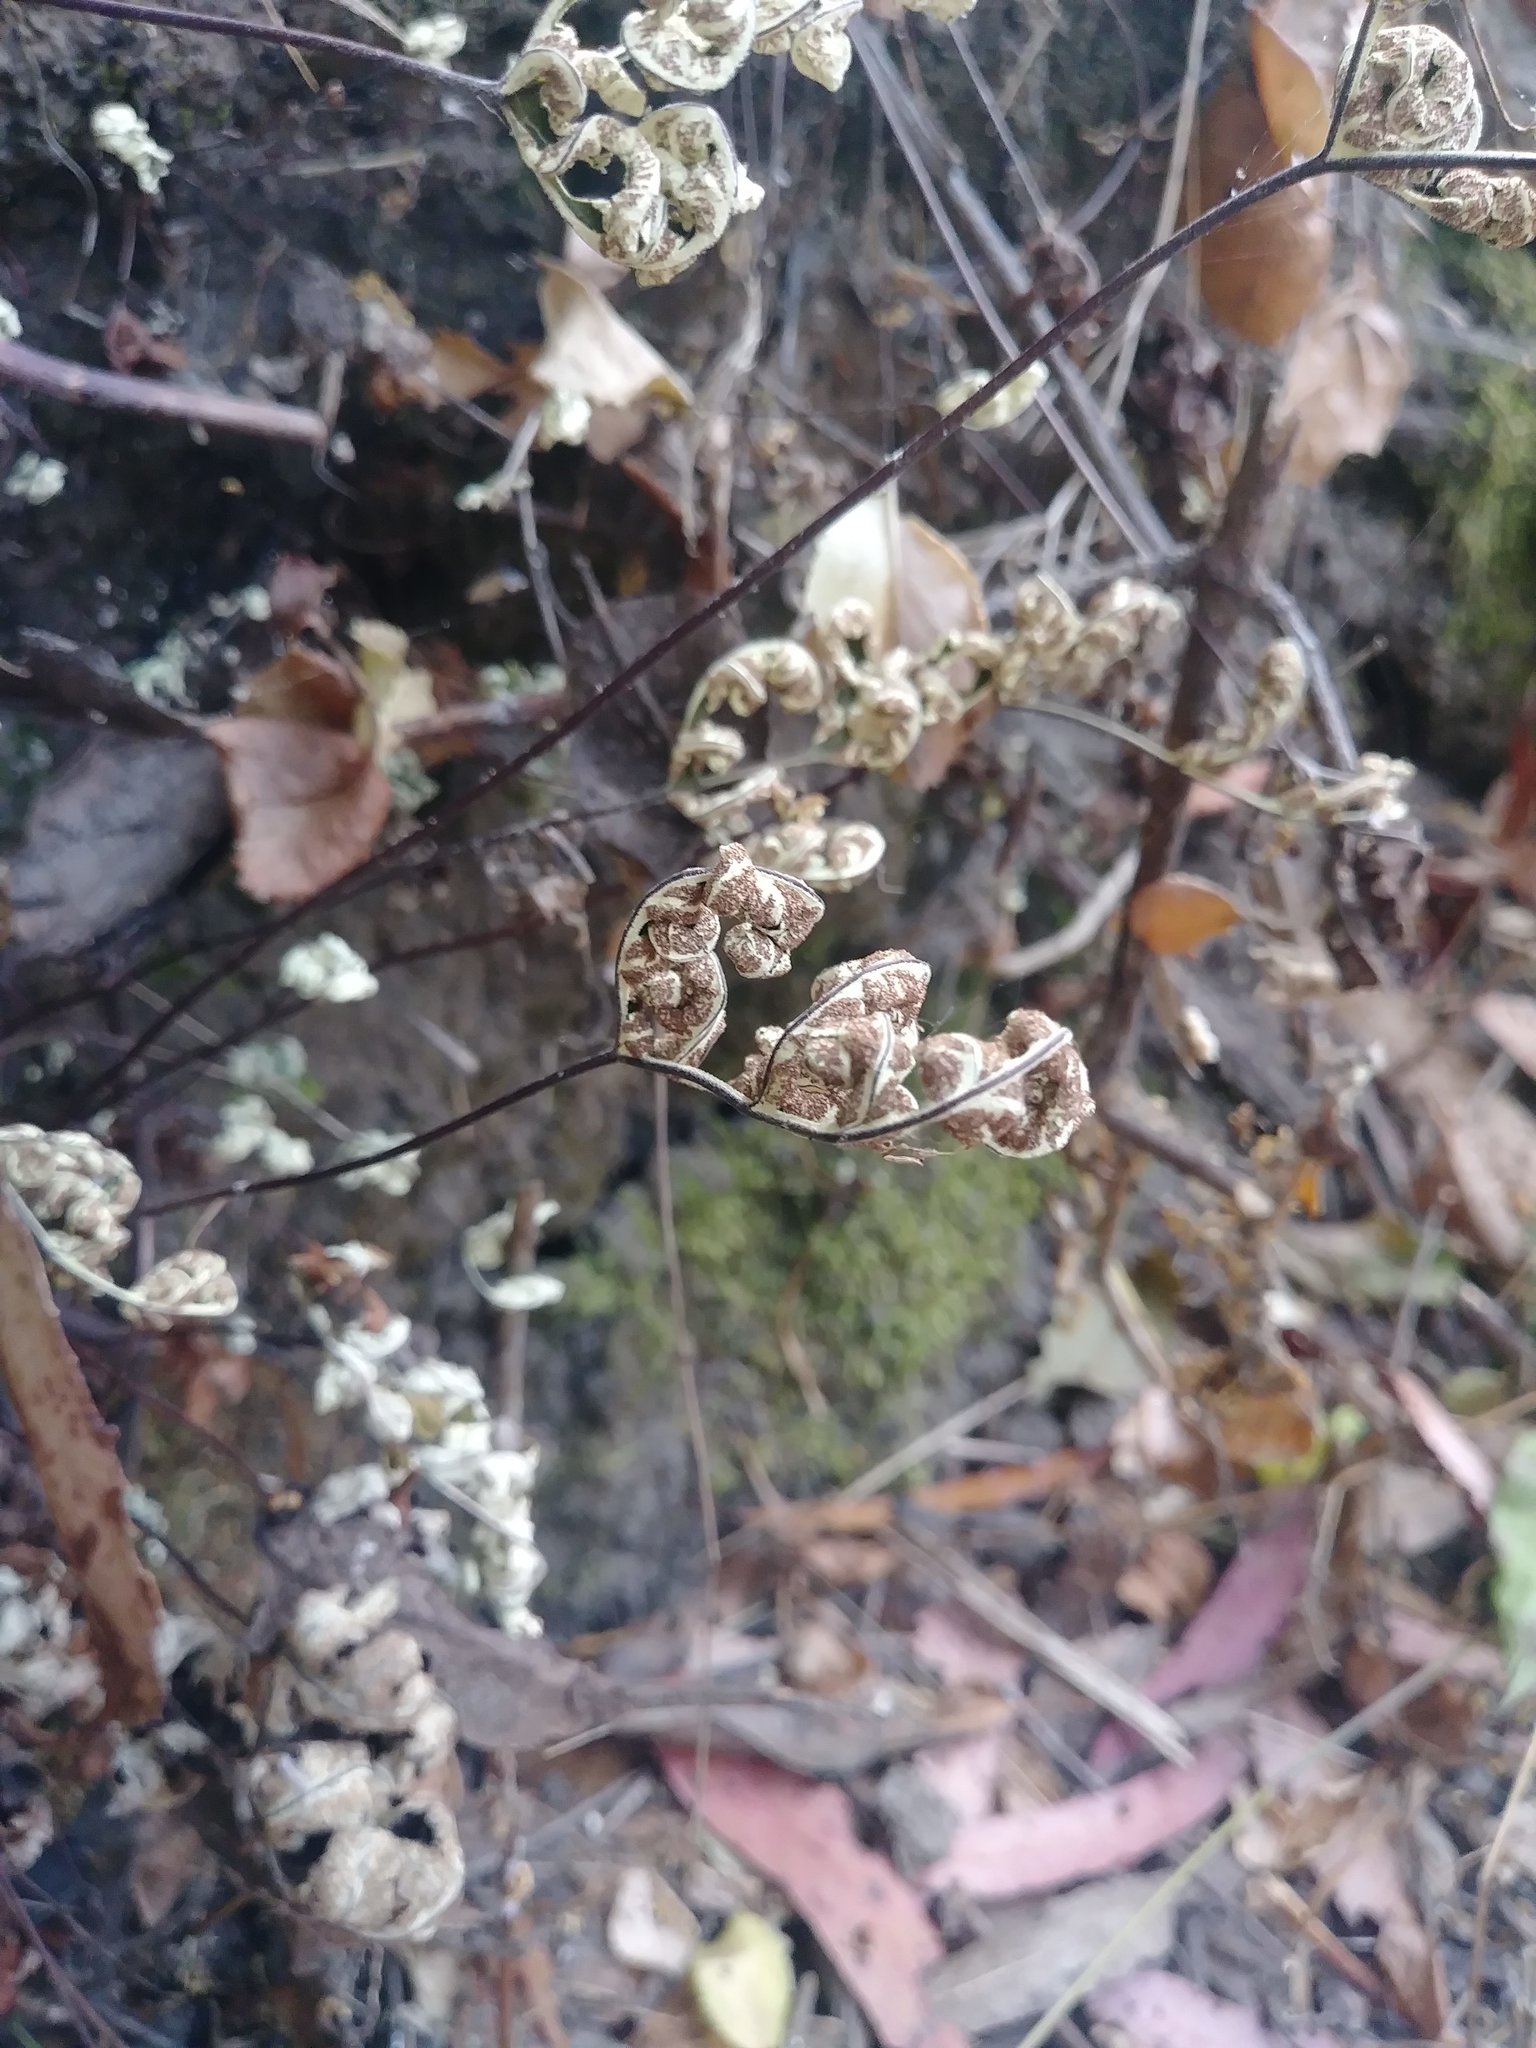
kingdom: Plantae
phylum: Tracheophyta
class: Polypodiopsida
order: Polypodiales
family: Pteridaceae
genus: Pentagramma
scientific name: Pentagramma triangularis
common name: Gold fern
